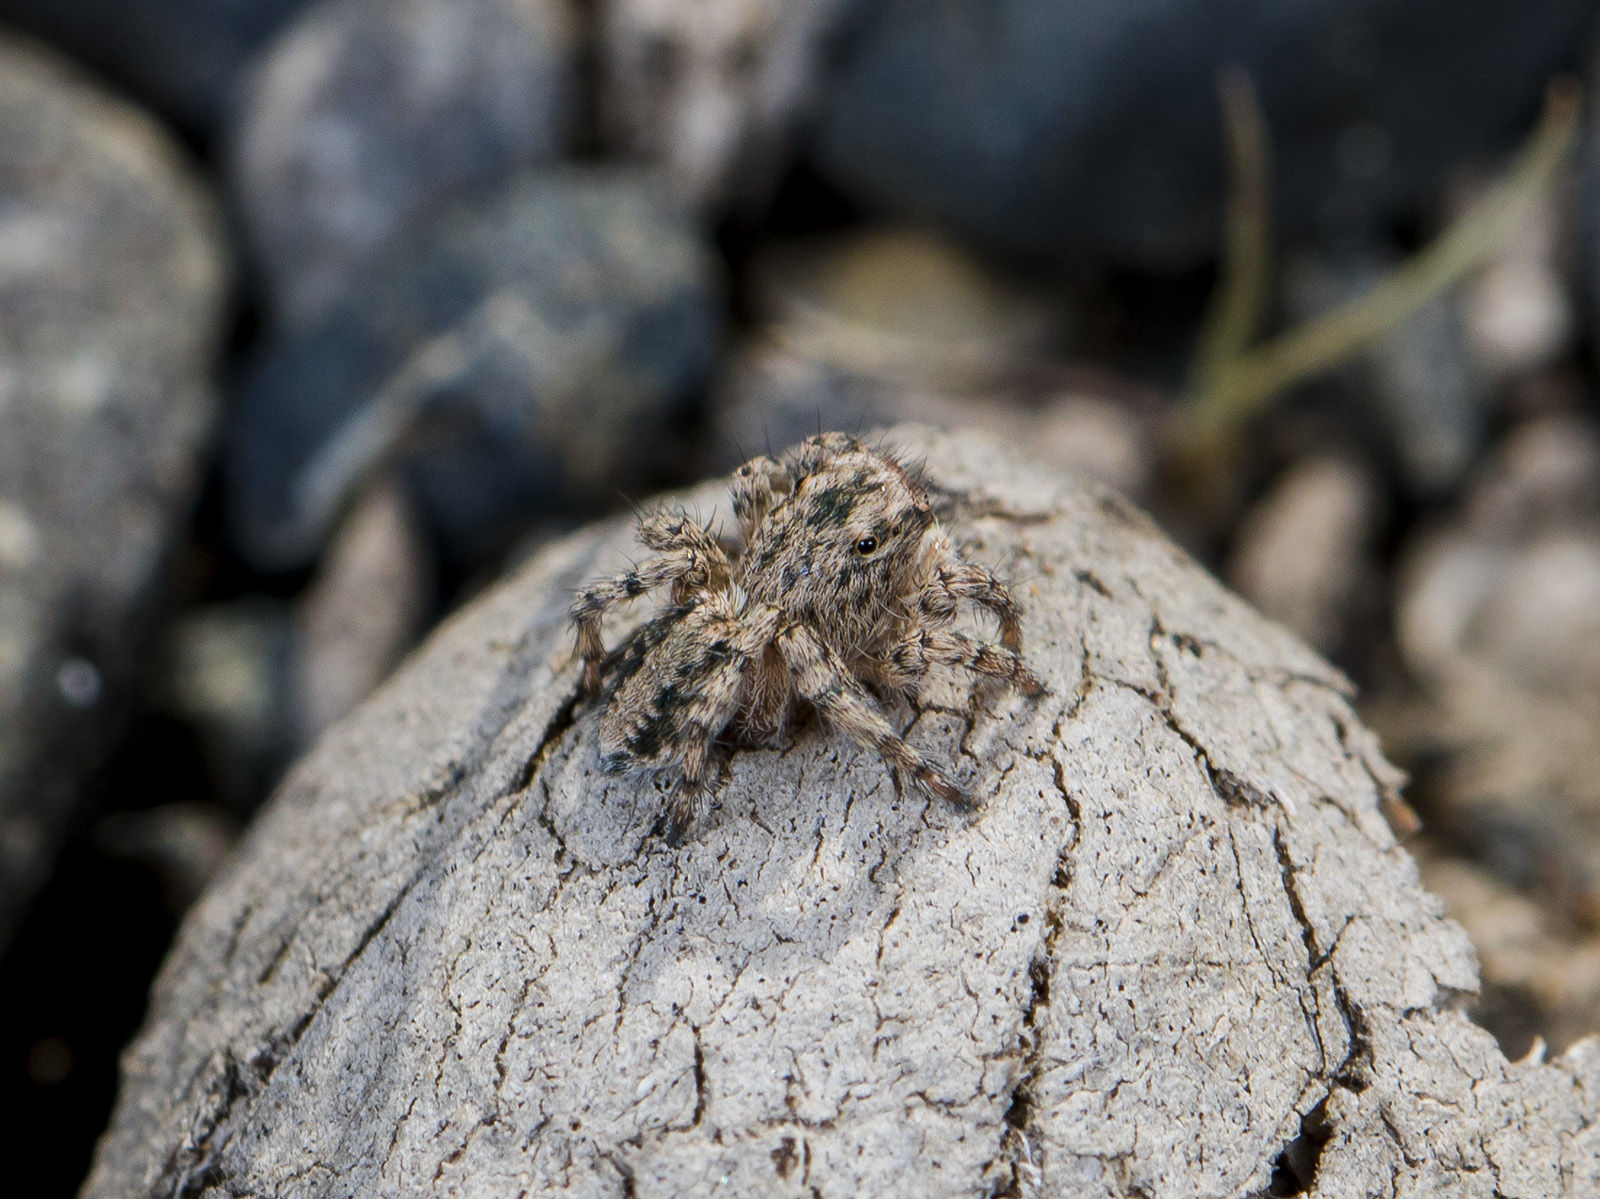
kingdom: Animalia
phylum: Arthropoda
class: Arachnida
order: Araneae
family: Salticidae
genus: Aelurillus
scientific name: Aelurillus dubatolovi
